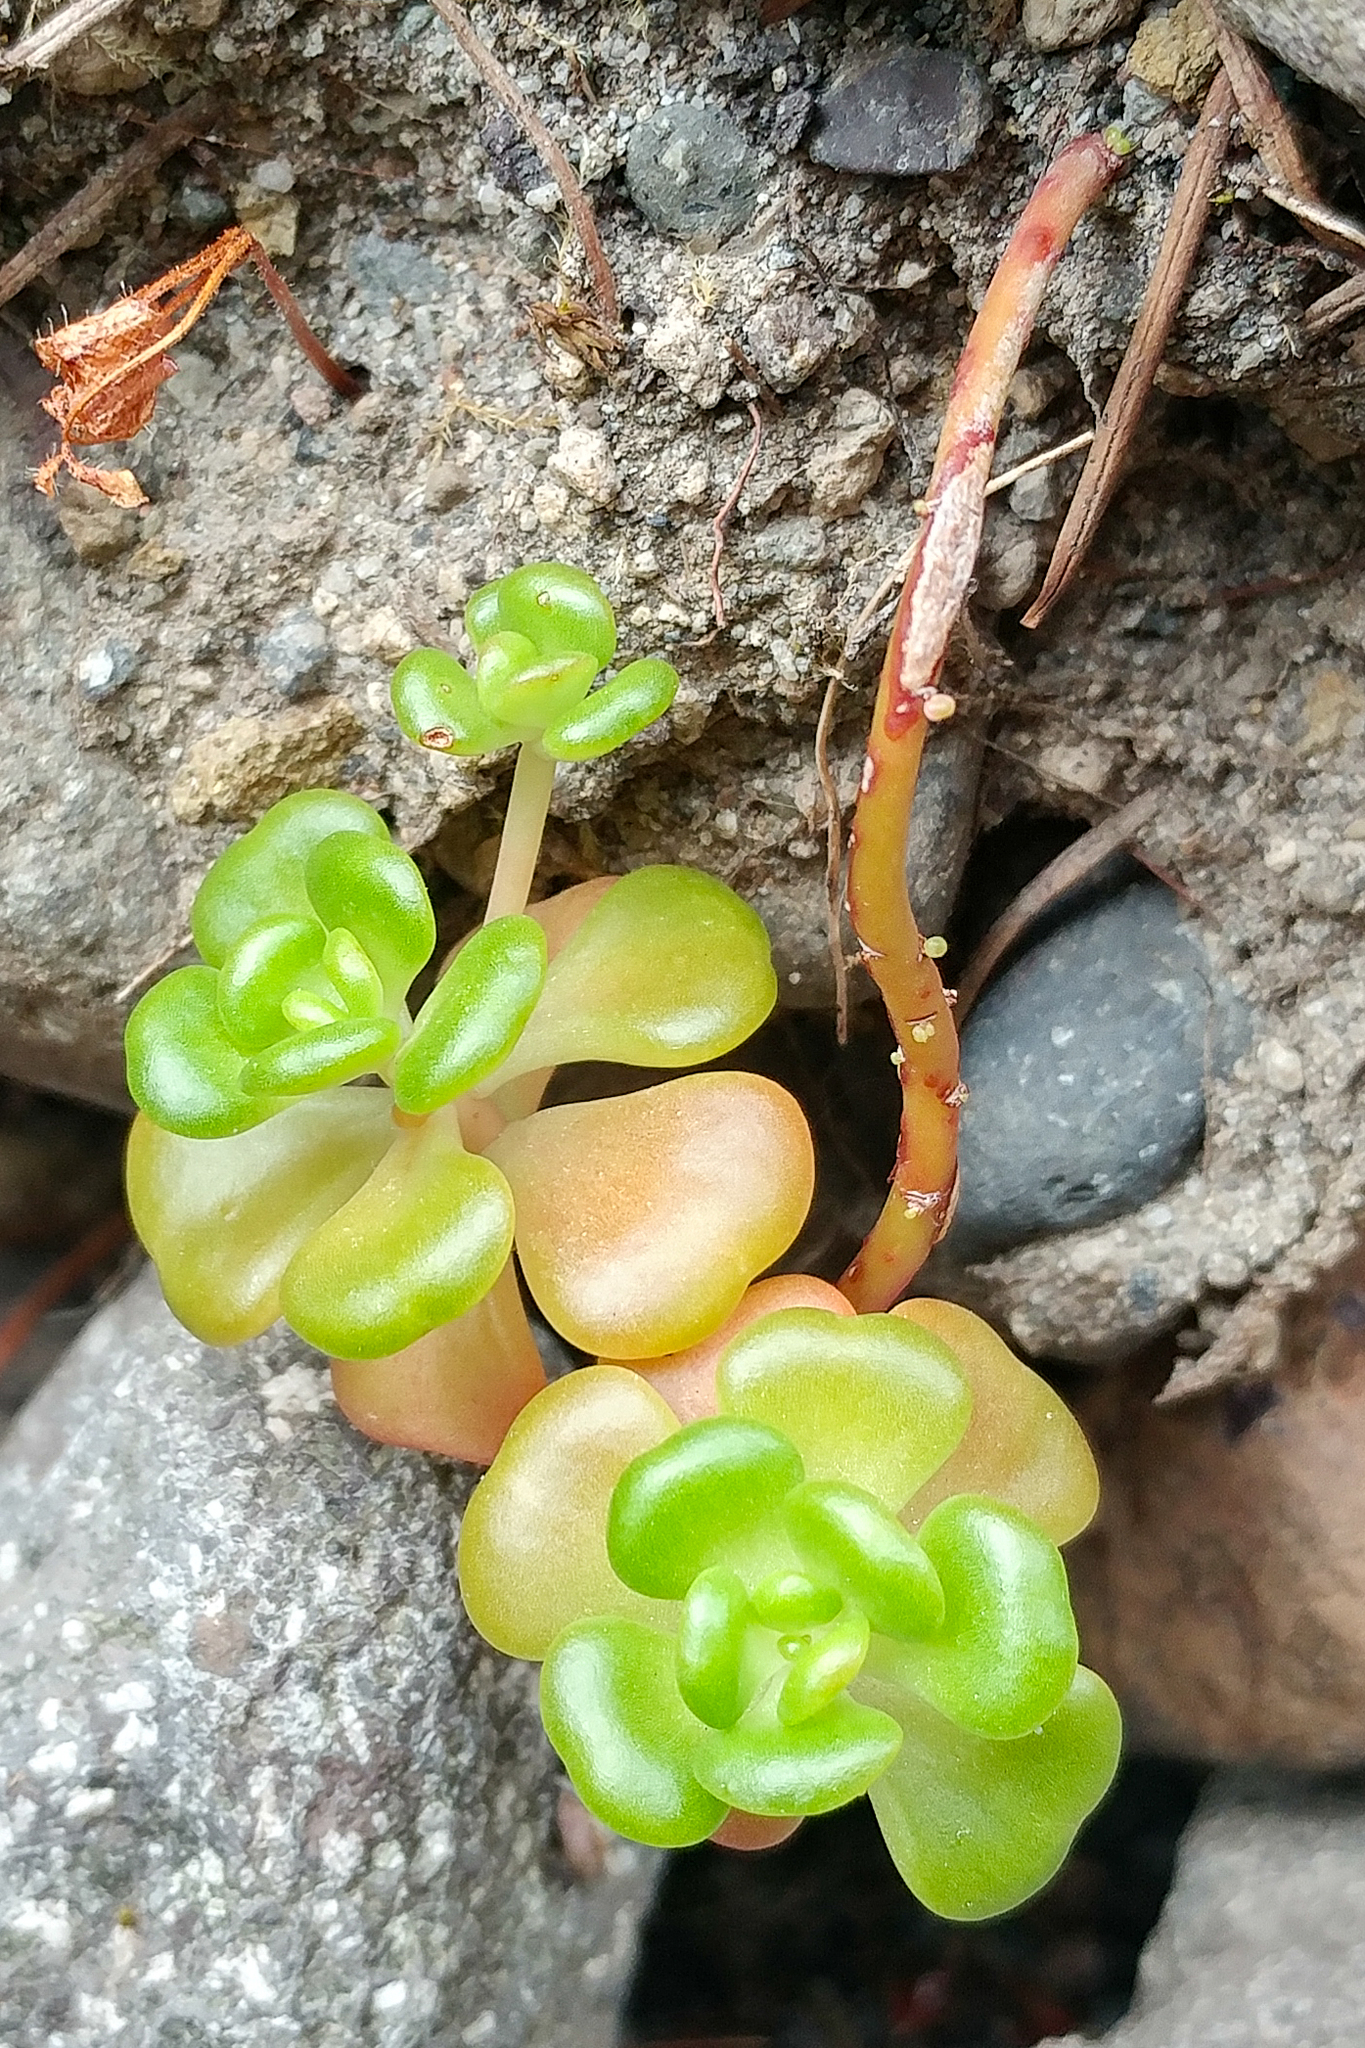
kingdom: Plantae
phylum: Tracheophyta
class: Magnoliopsida
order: Saxifragales
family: Crassulaceae
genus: Sedum
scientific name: Sedum oreganum
